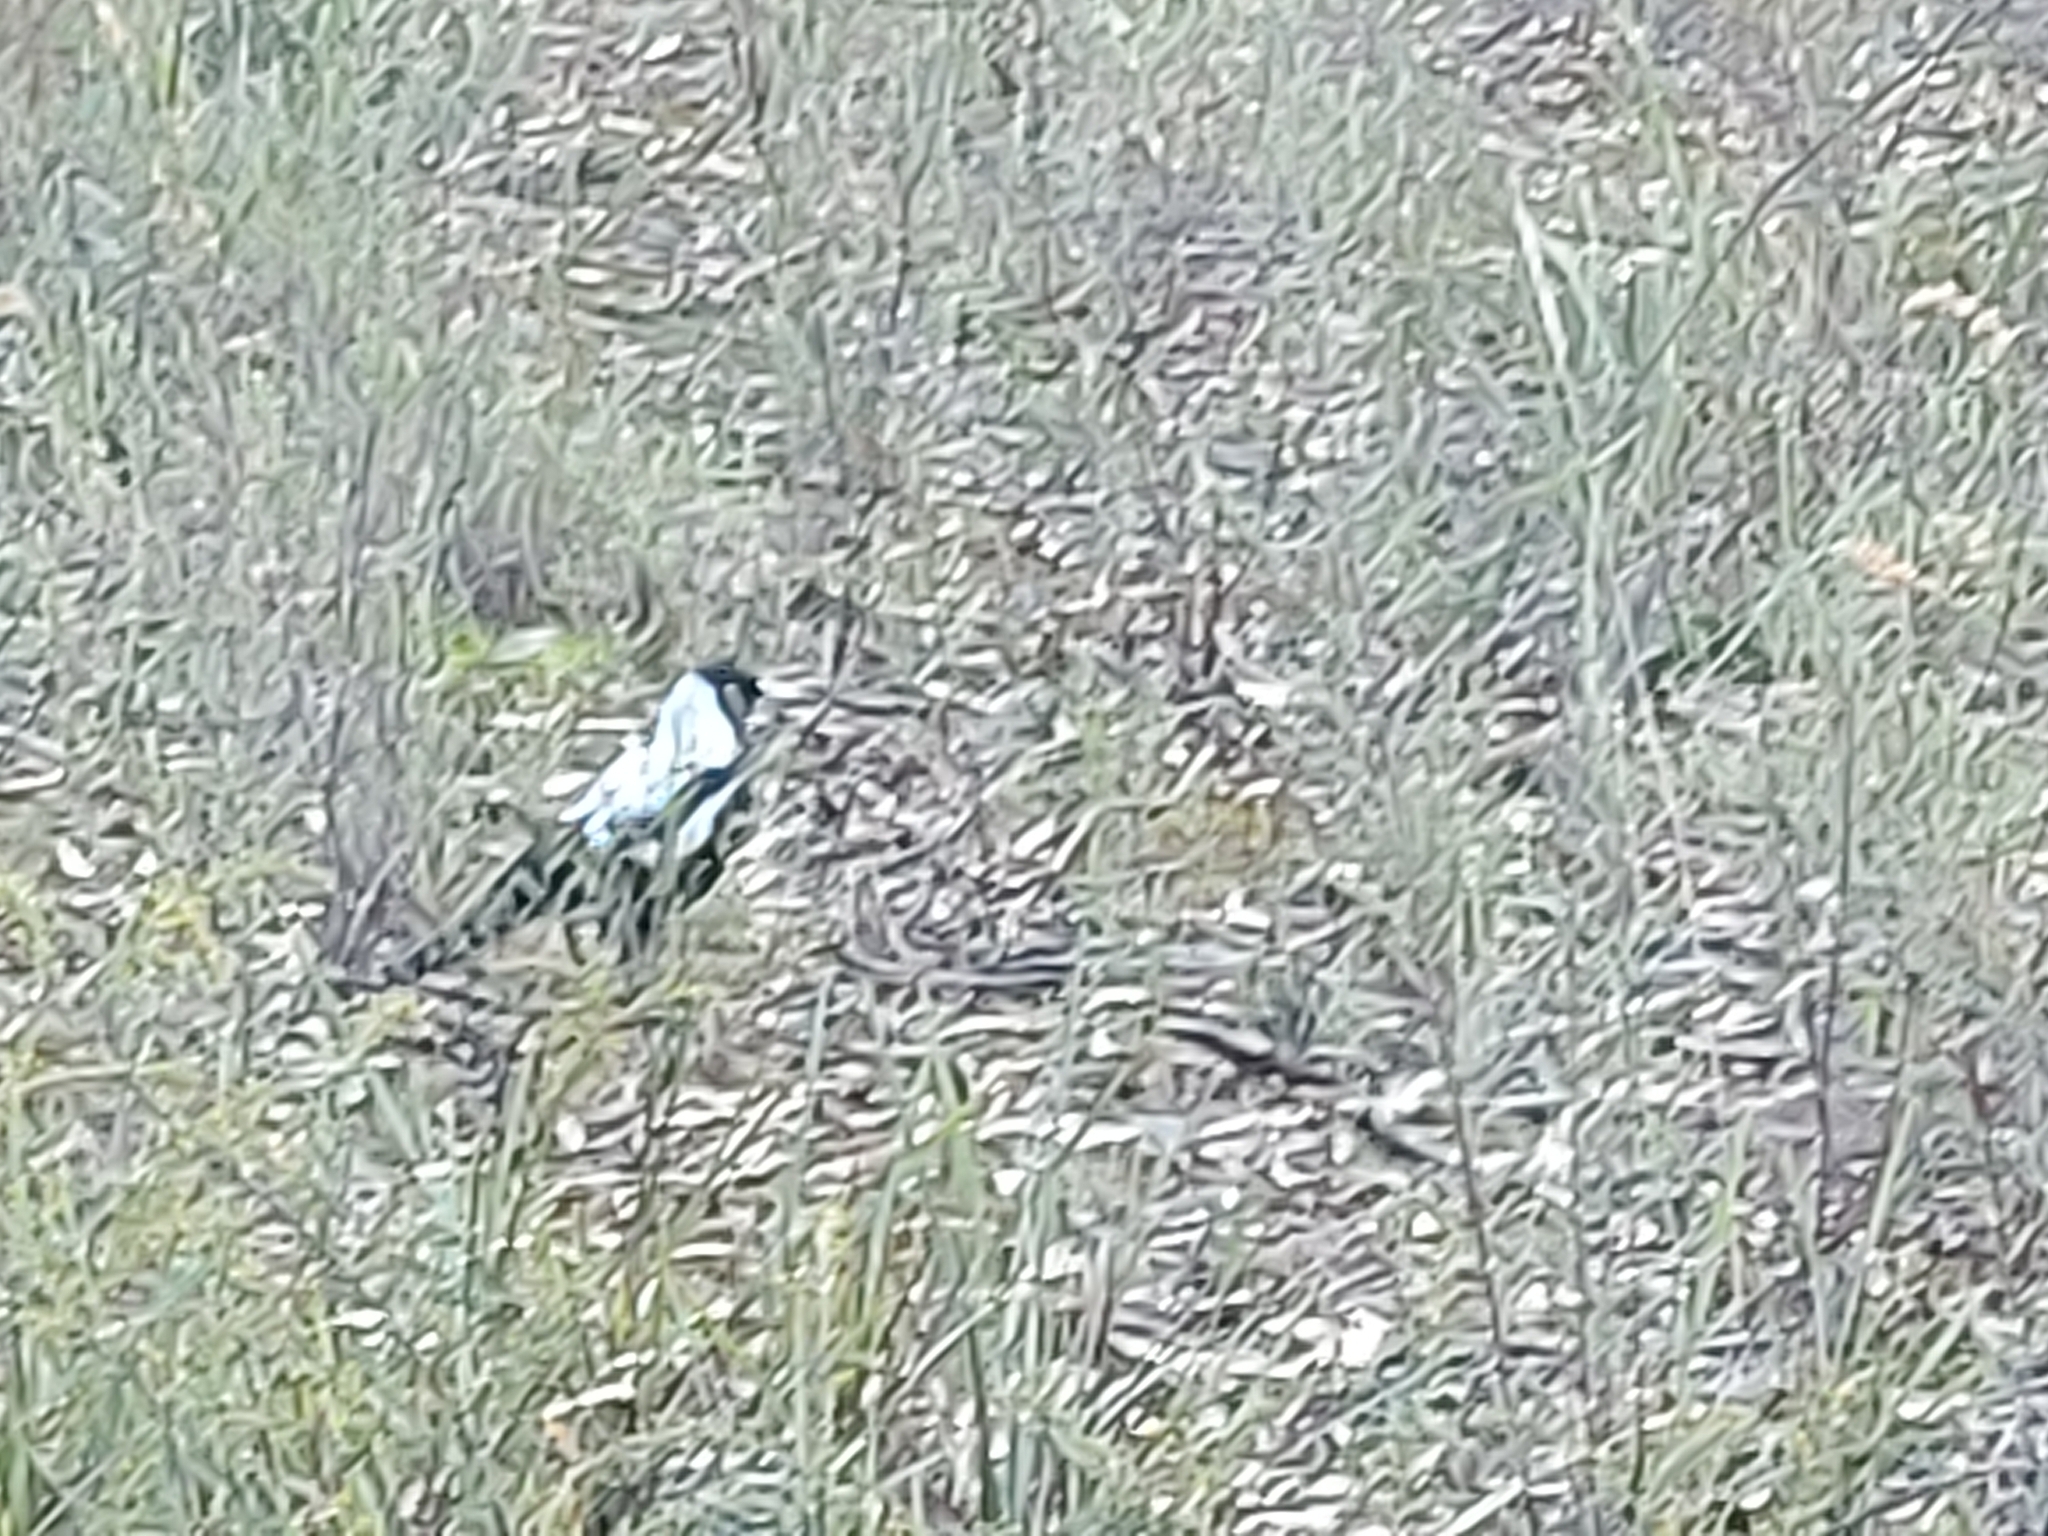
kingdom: Animalia
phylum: Chordata
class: Aves
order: Passeriformes
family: Cracticidae
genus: Gymnorhina
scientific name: Gymnorhina tibicen
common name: Australian magpie
